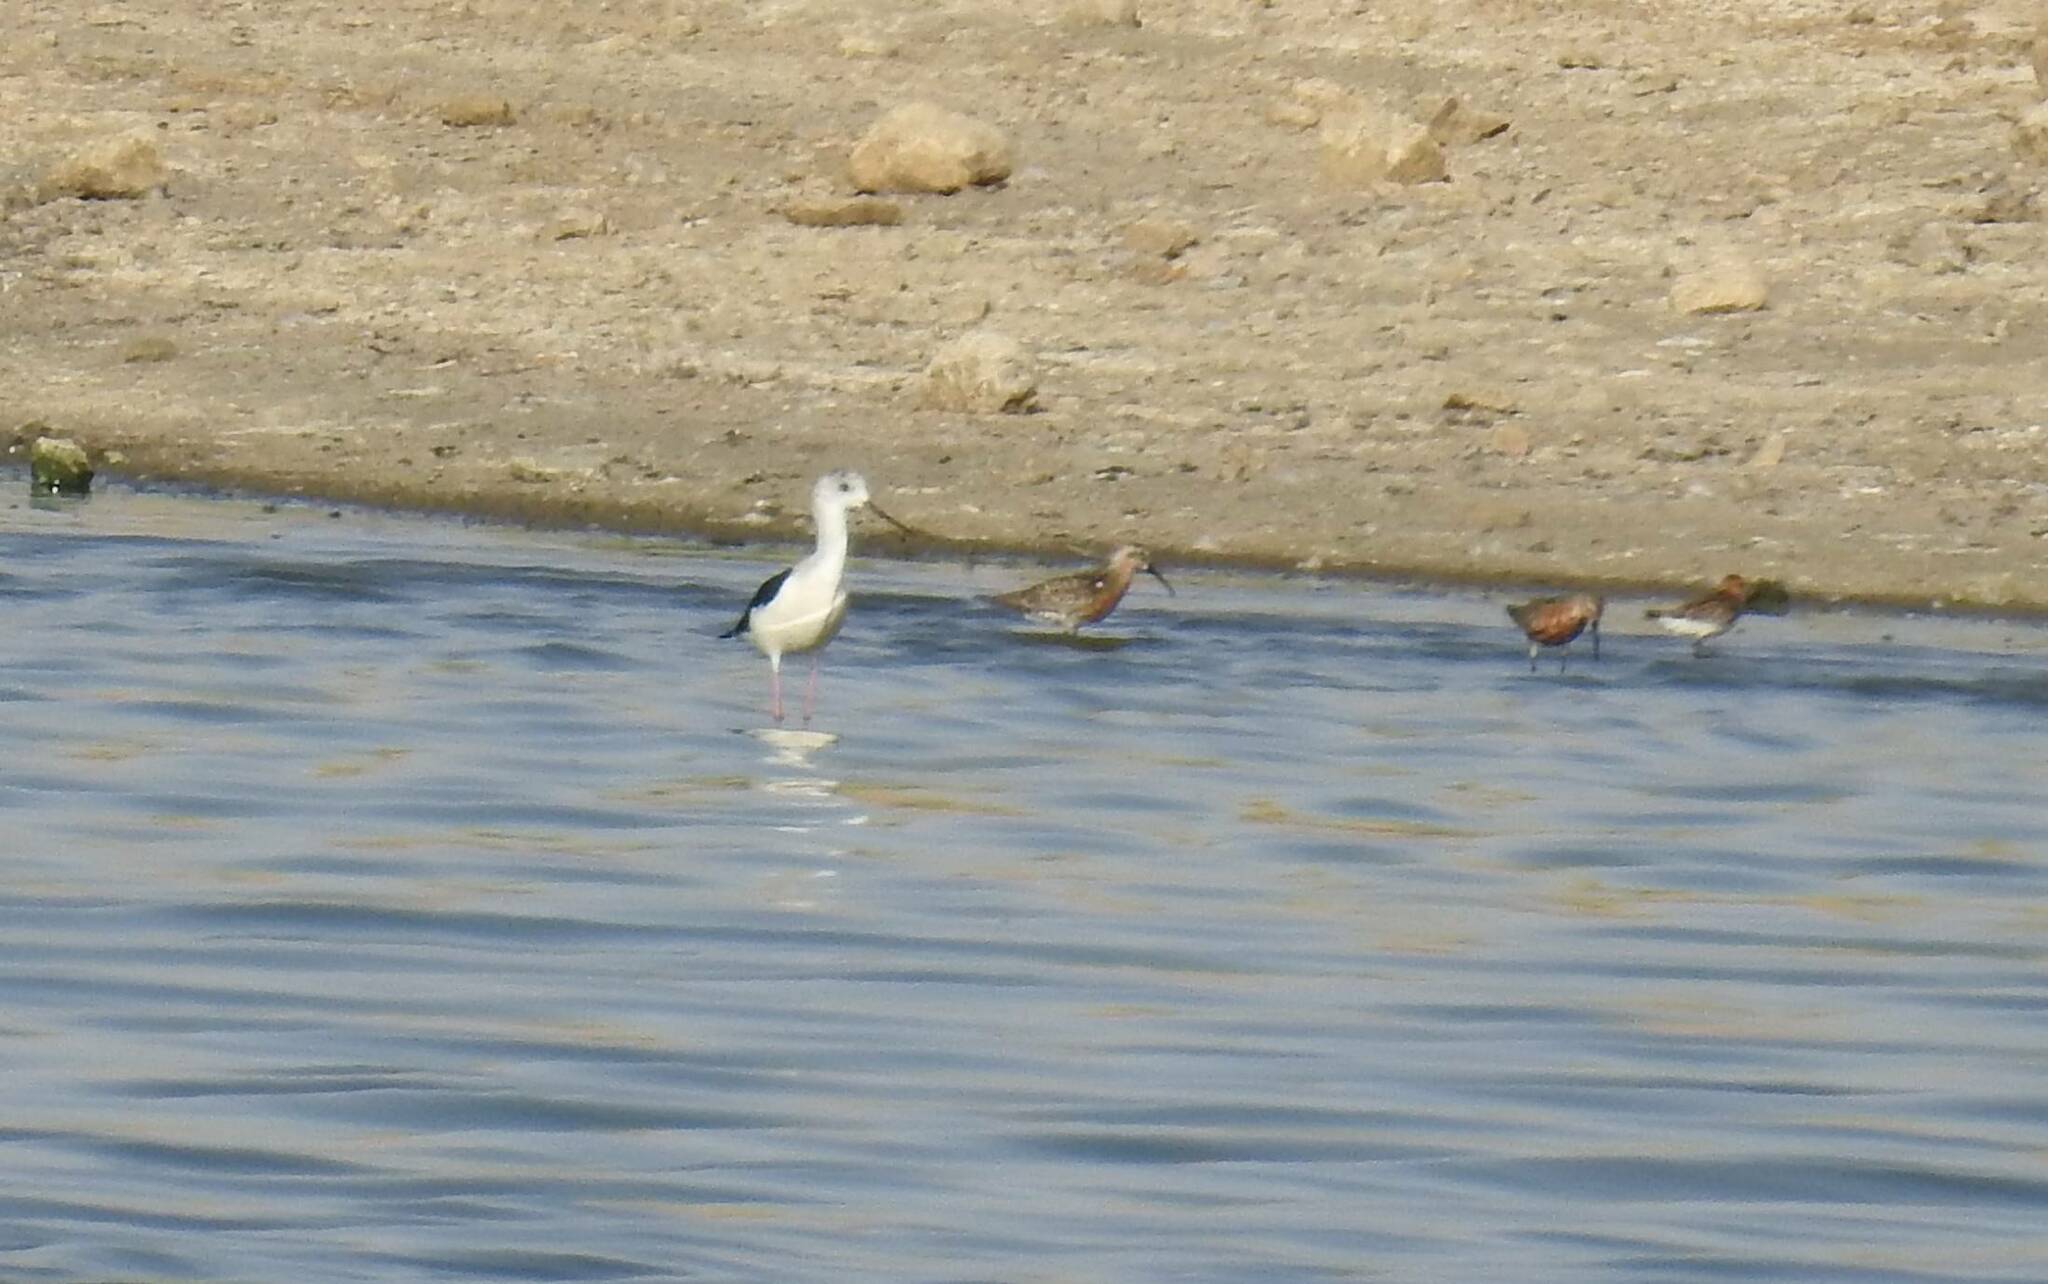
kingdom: Animalia
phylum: Chordata
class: Aves
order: Charadriiformes
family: Recurvirostridae
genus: Himantopus
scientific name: Himantopus himantopus
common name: Black-winged stilt
